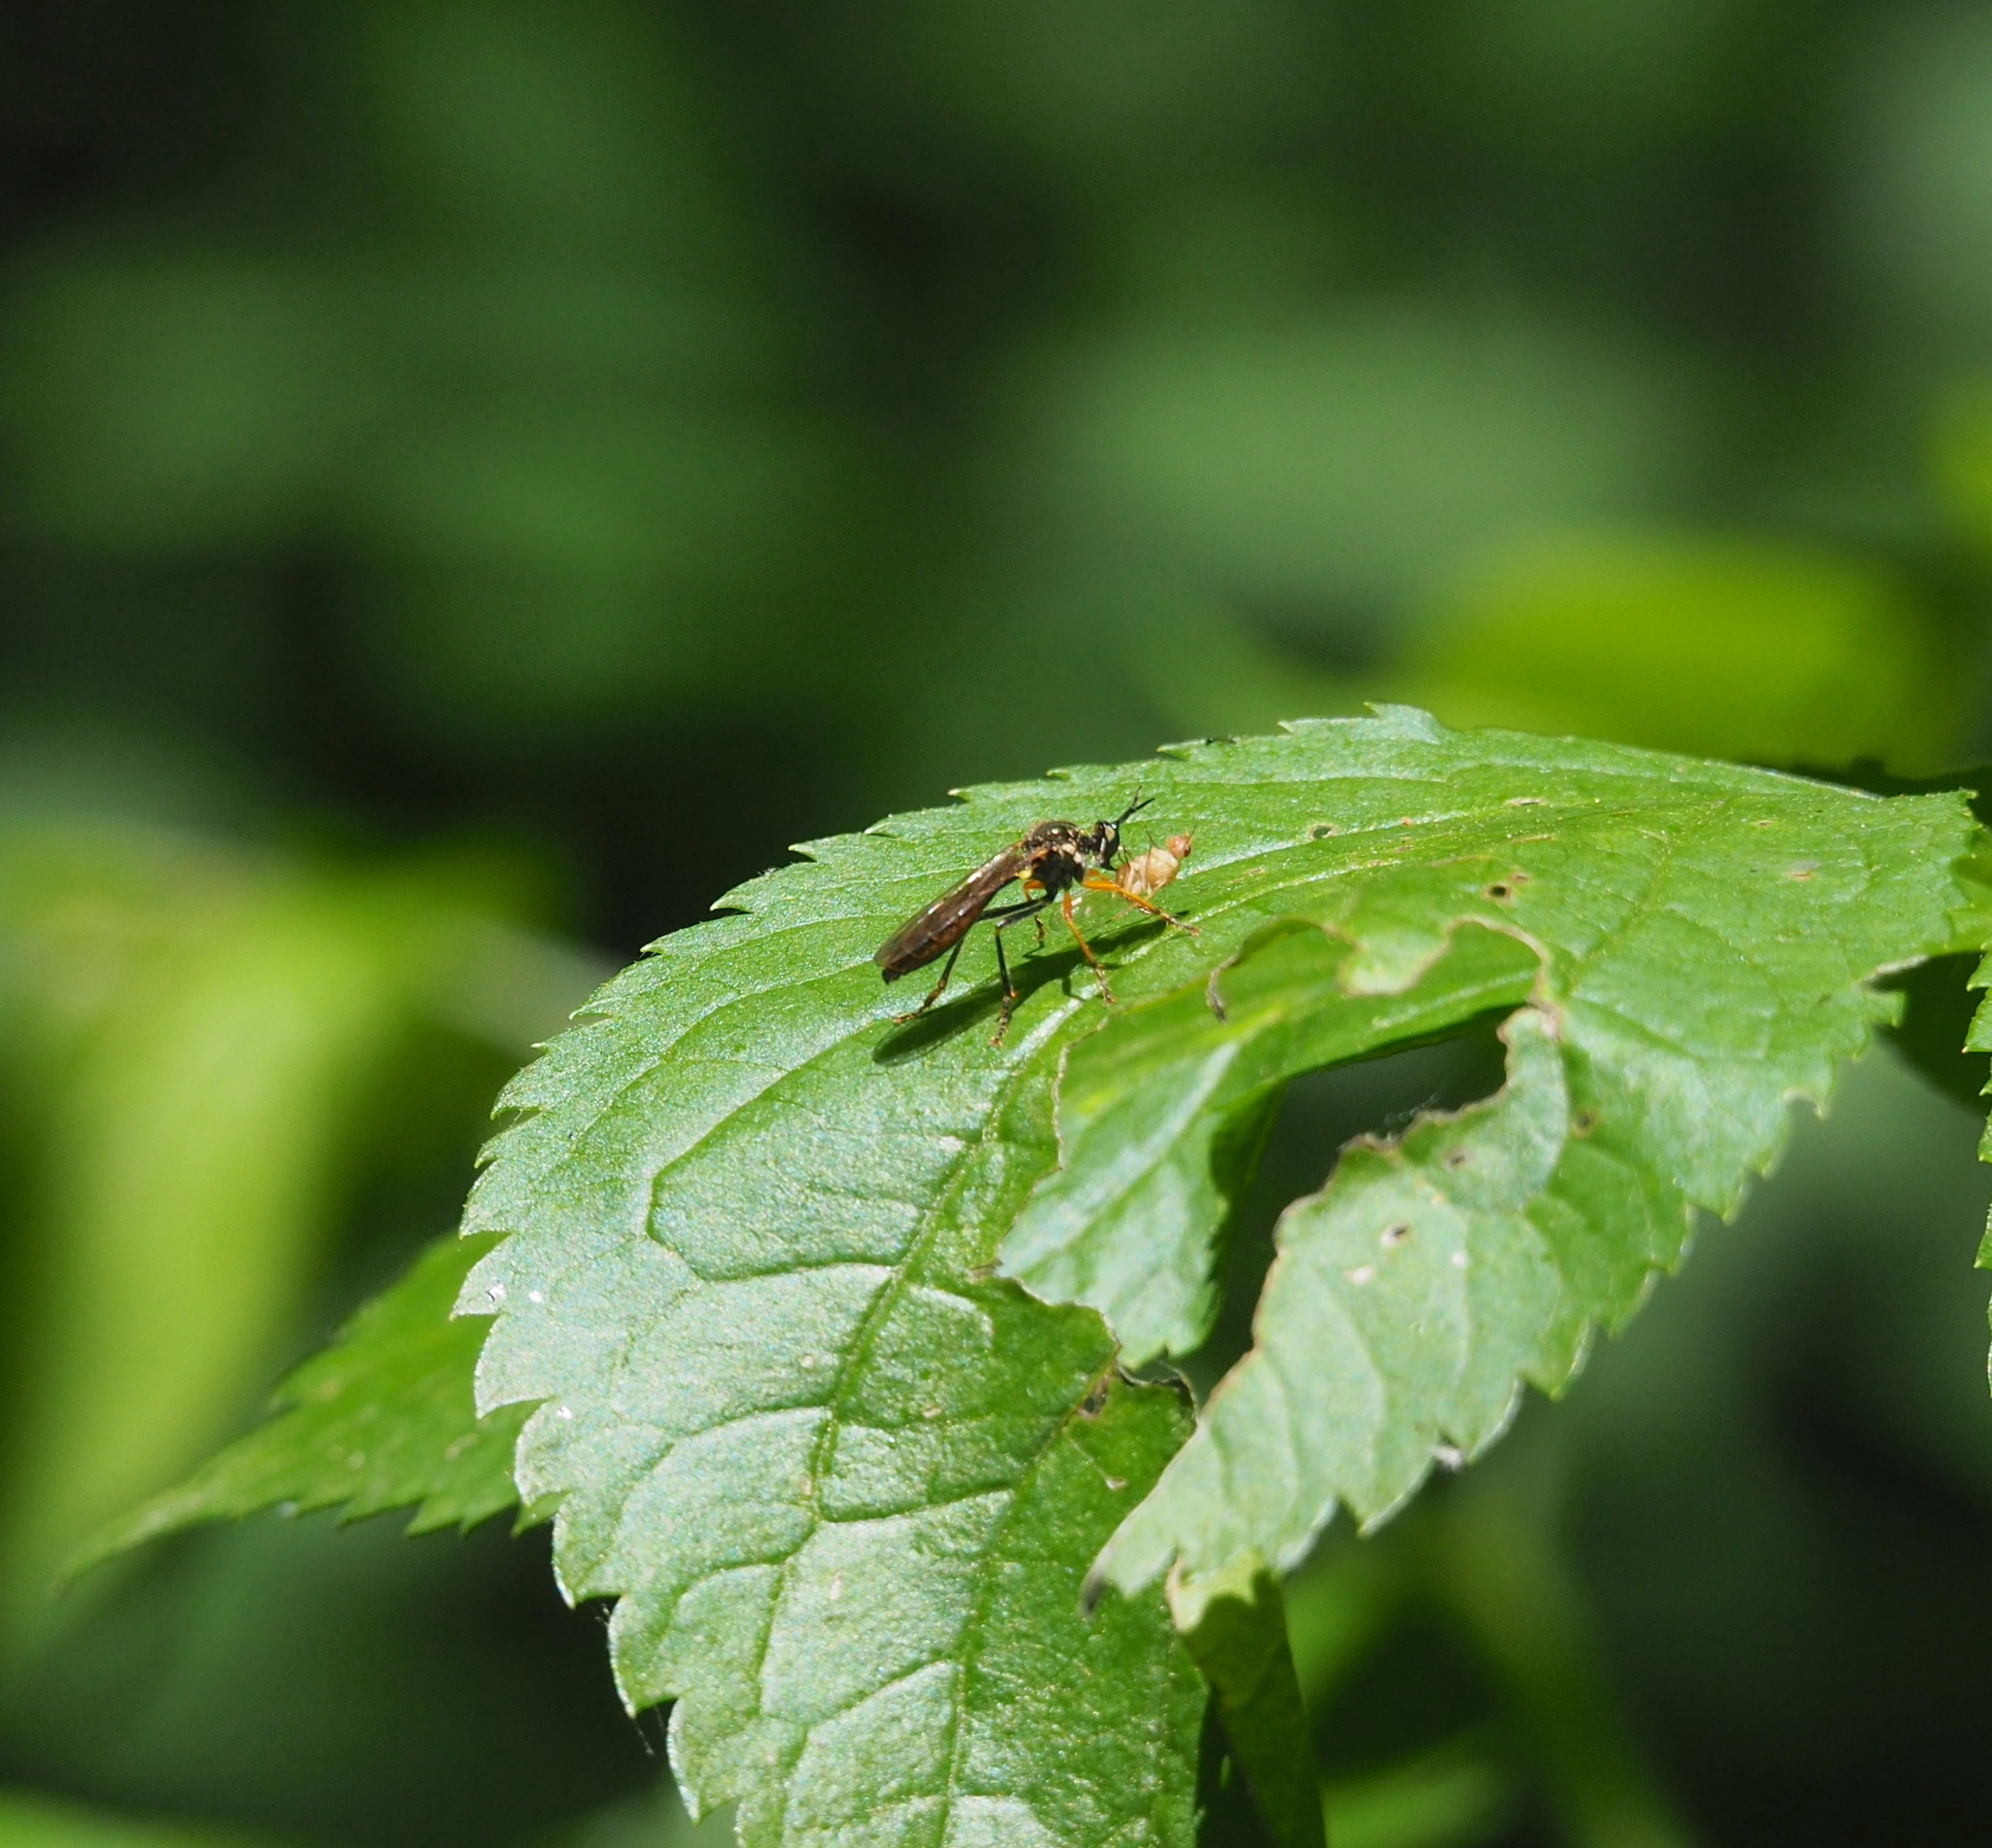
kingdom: Animalia
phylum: Arthropoda
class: Insecta
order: Diptera
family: Asilidae
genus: Dioctria
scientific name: Dioctria rufipes
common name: Common red-legged robberfly
